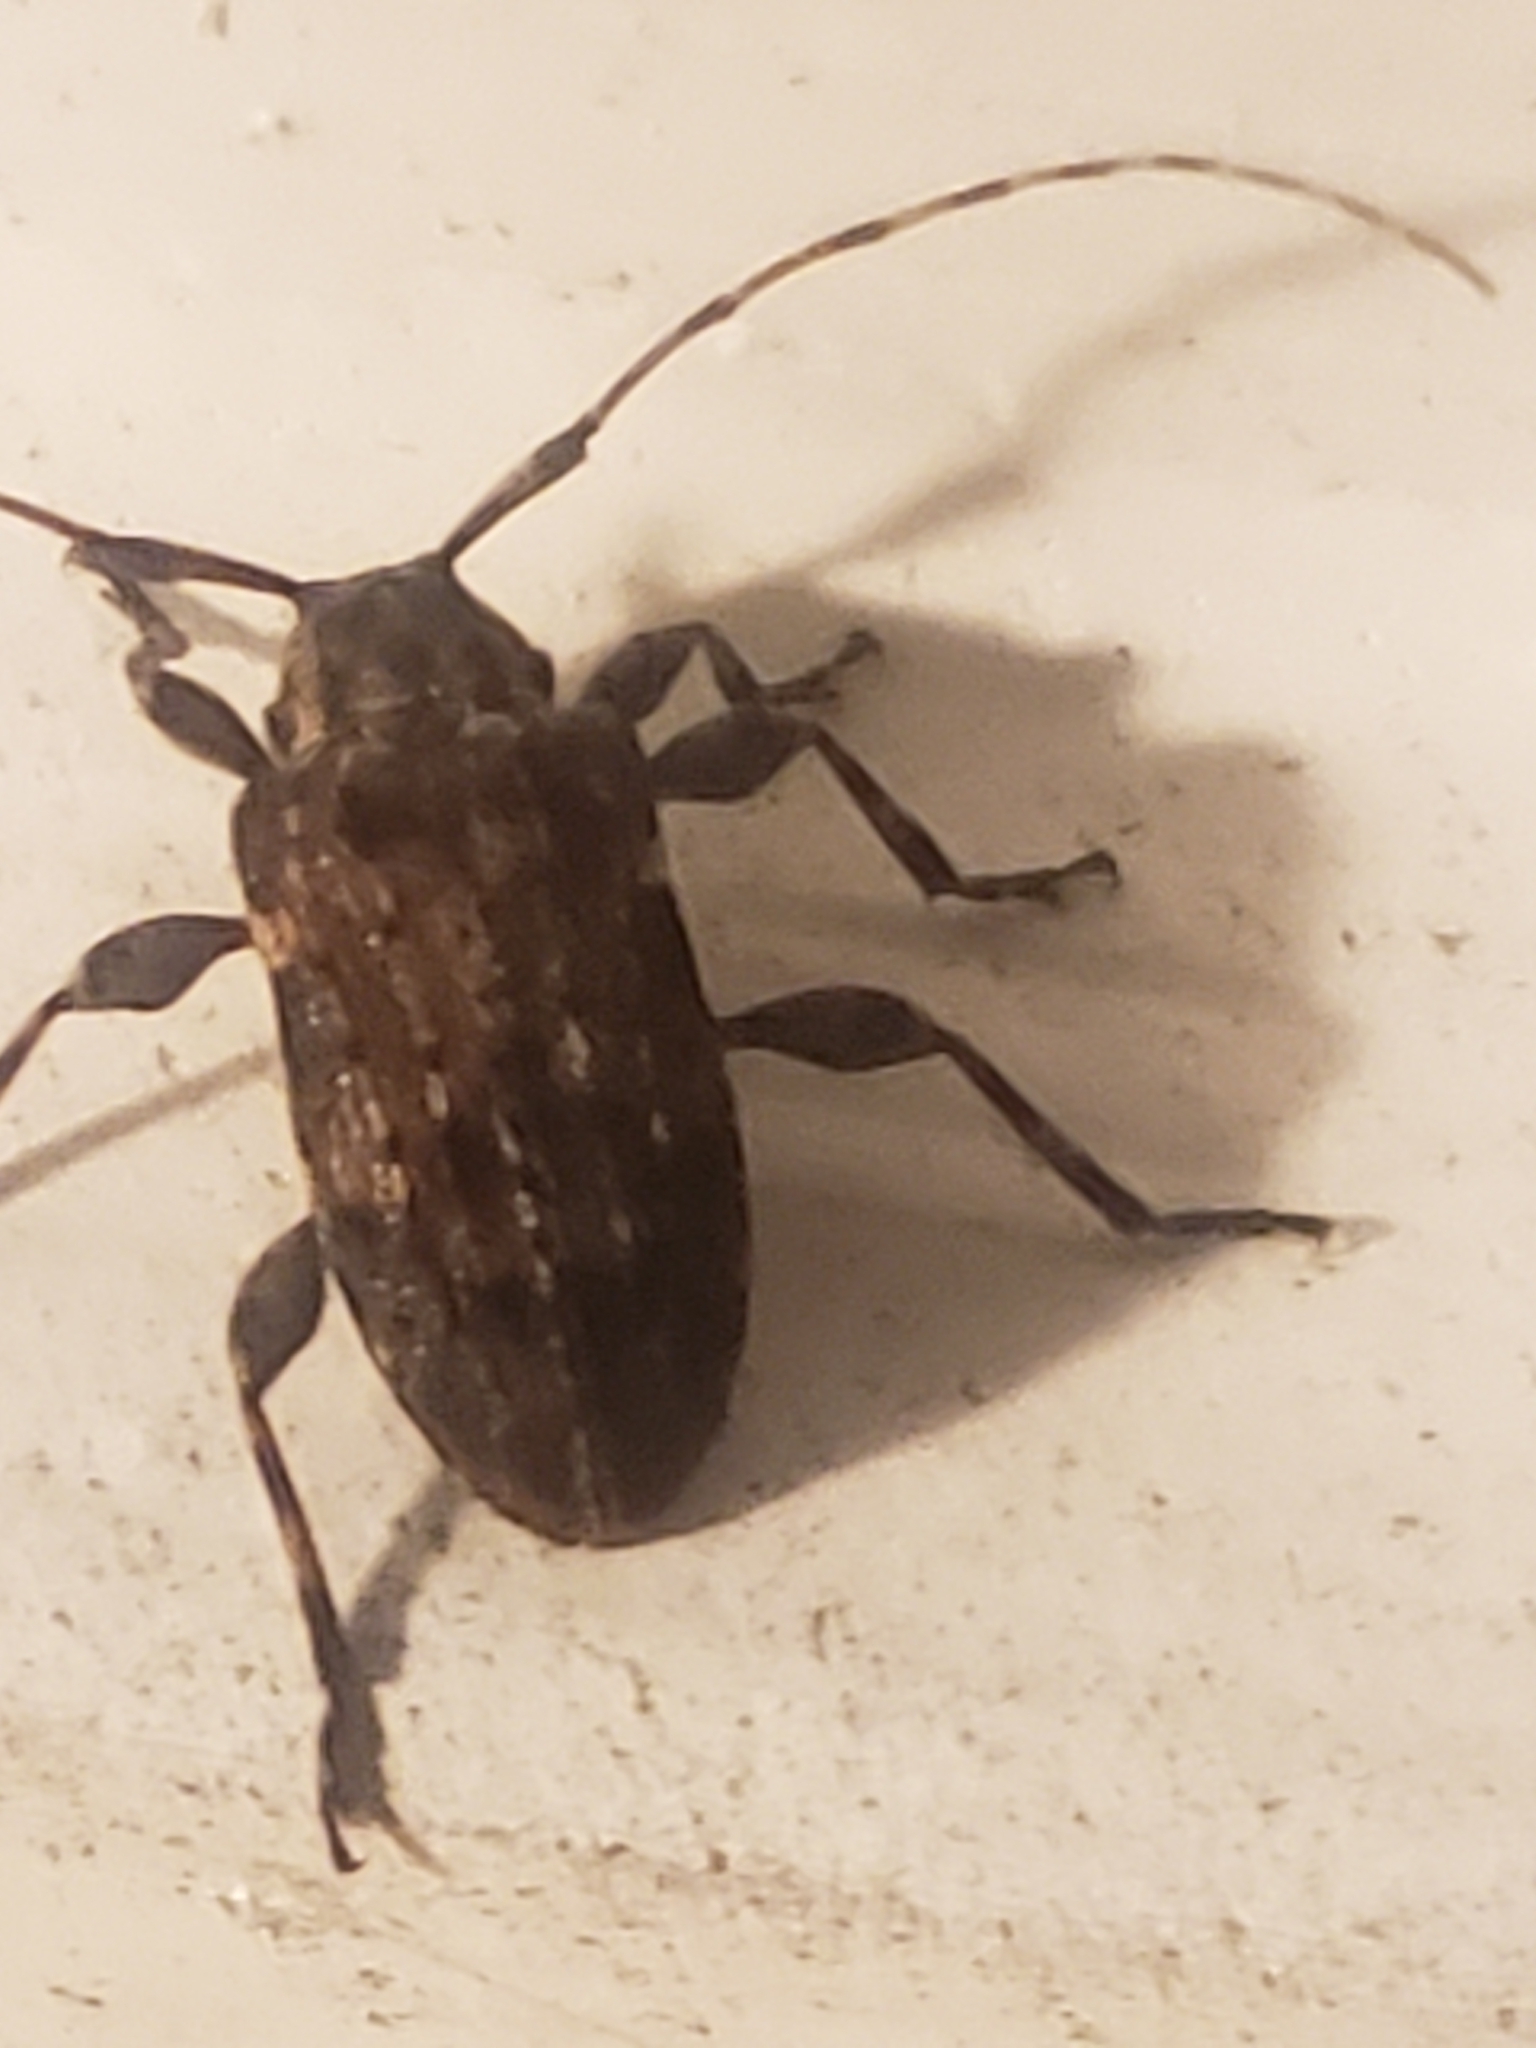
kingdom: Animalia
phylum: Arthropoda
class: Insecta
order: Coleoptera
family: Cerambycidae
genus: Astylopsis
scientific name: Astylopsis sexguttata
